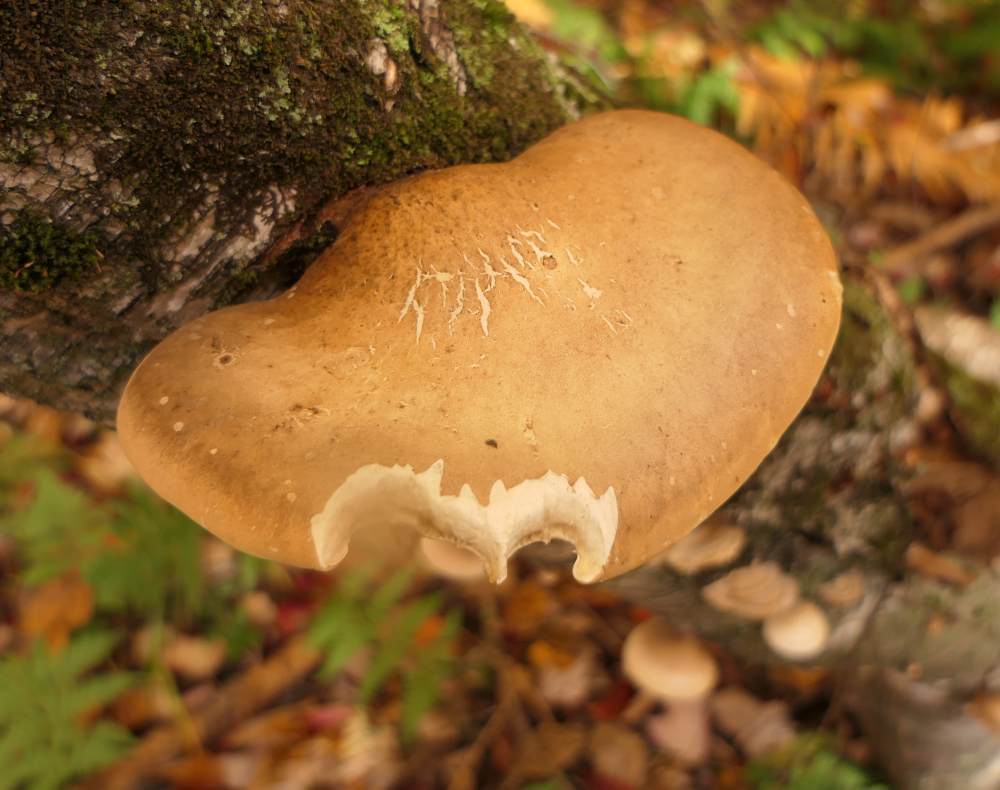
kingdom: Fungi
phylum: Basidiomycota
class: Agaricomycetes
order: Polyporales
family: Fomitopsidaceae
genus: Fomitopsis
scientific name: Fomitopsis betulina
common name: Birch polypore
